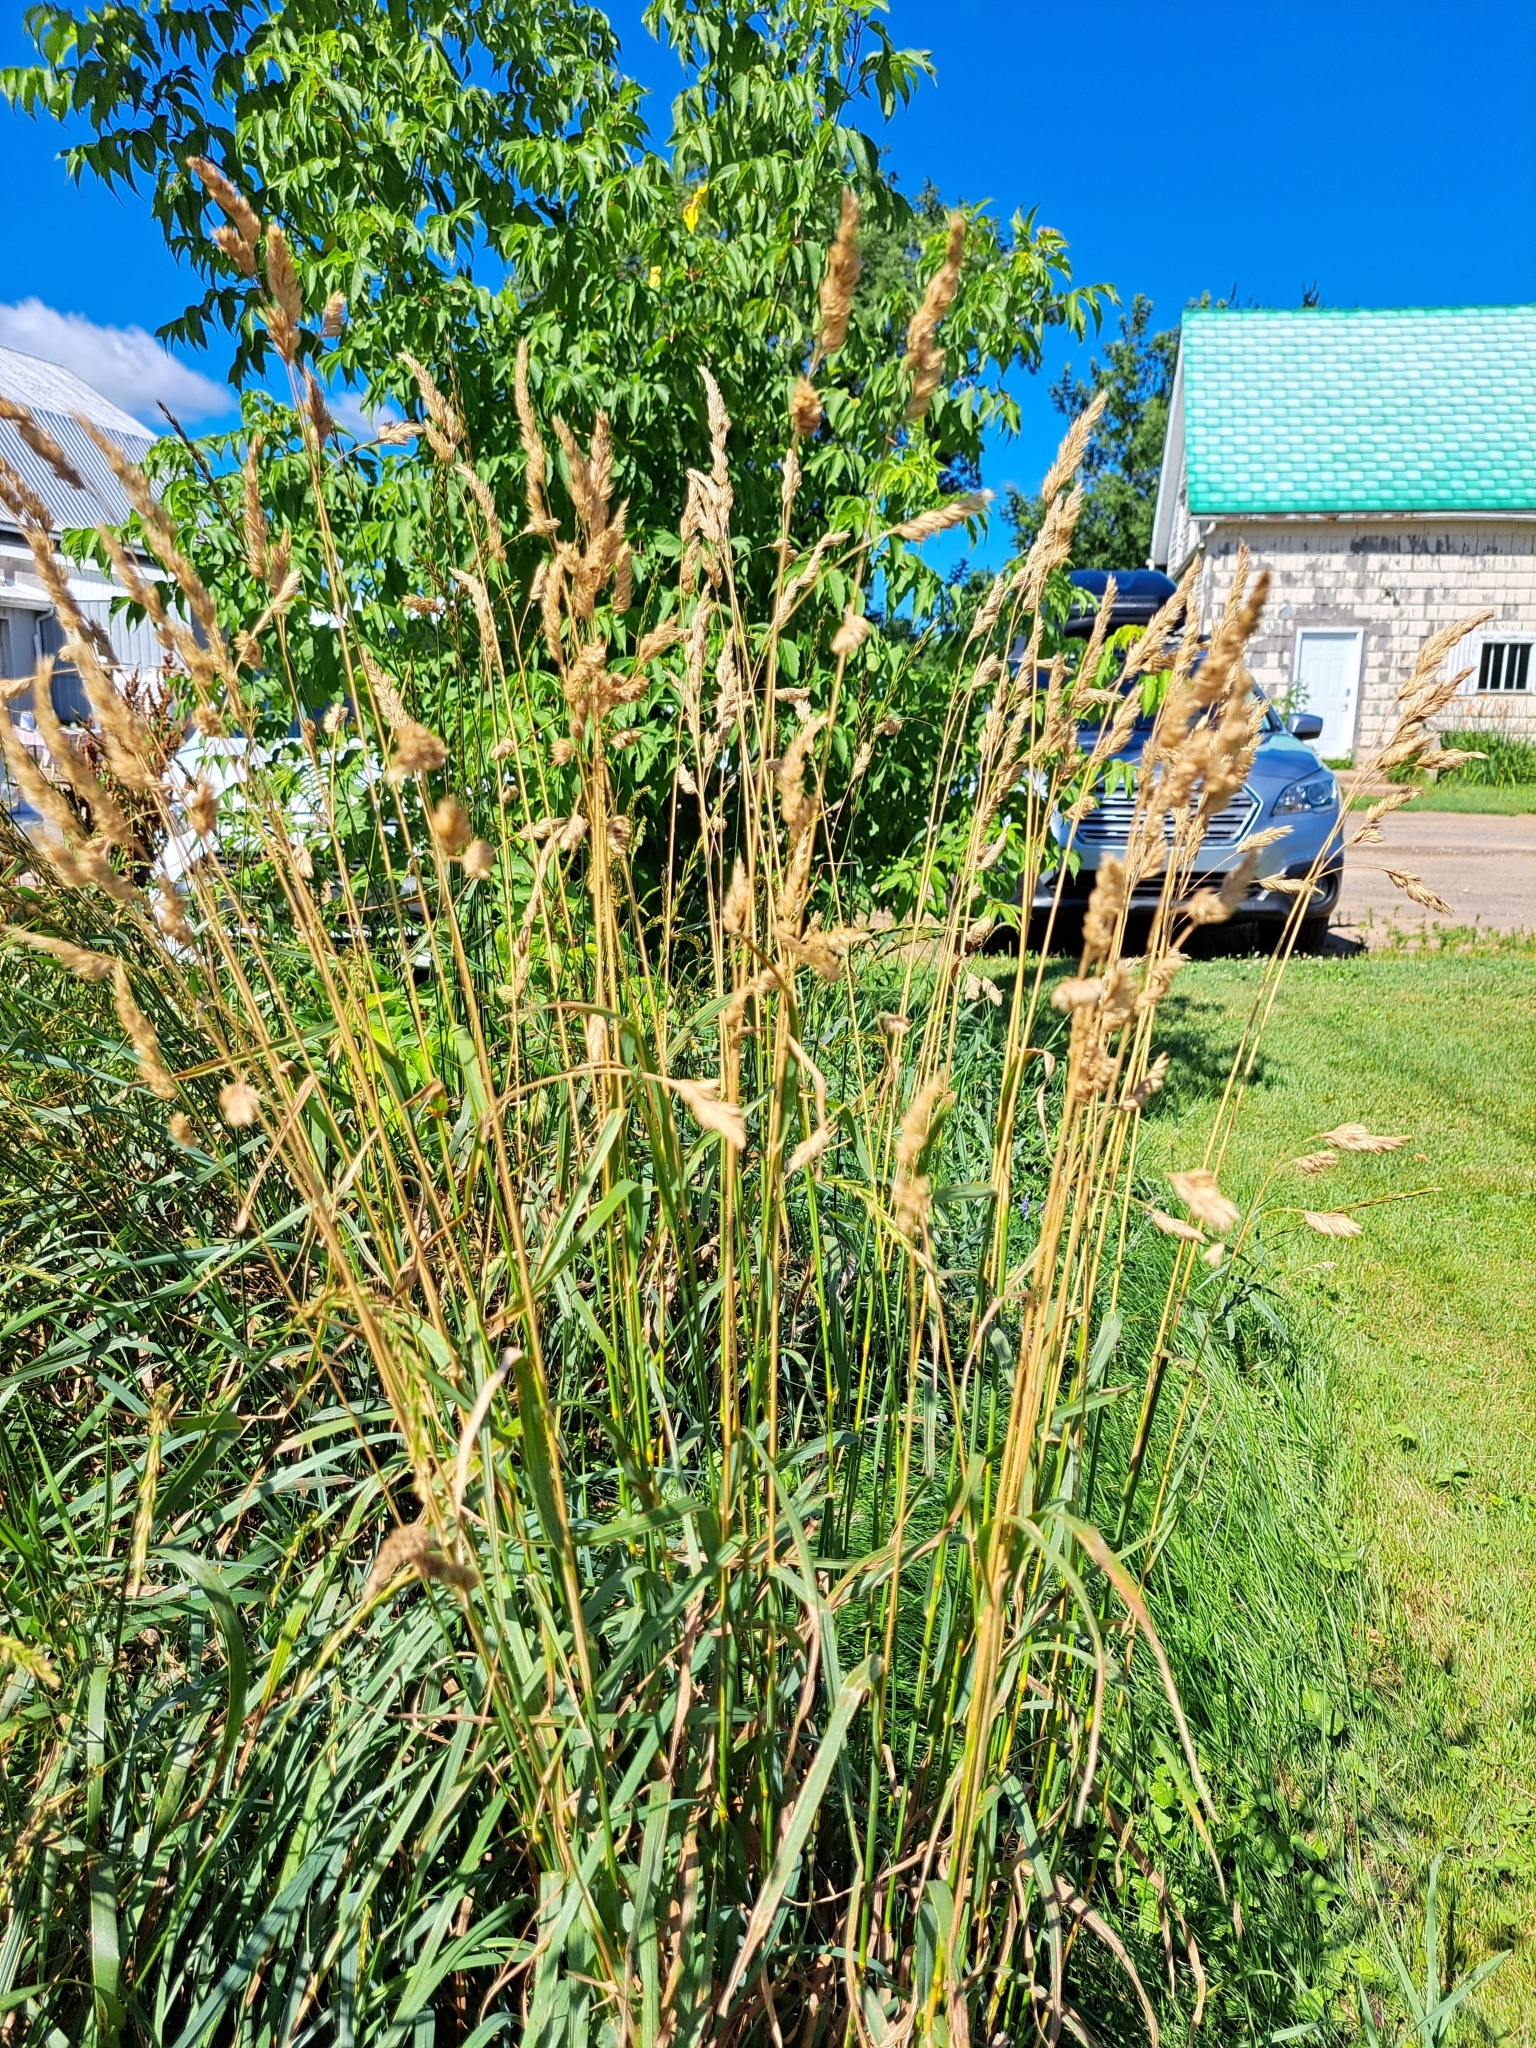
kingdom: Plantae
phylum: Tracheophyta
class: Liliopsida
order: Poales
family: Poaceae
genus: Dactylis
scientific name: Dactylis glomerata
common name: Orchardgrass
